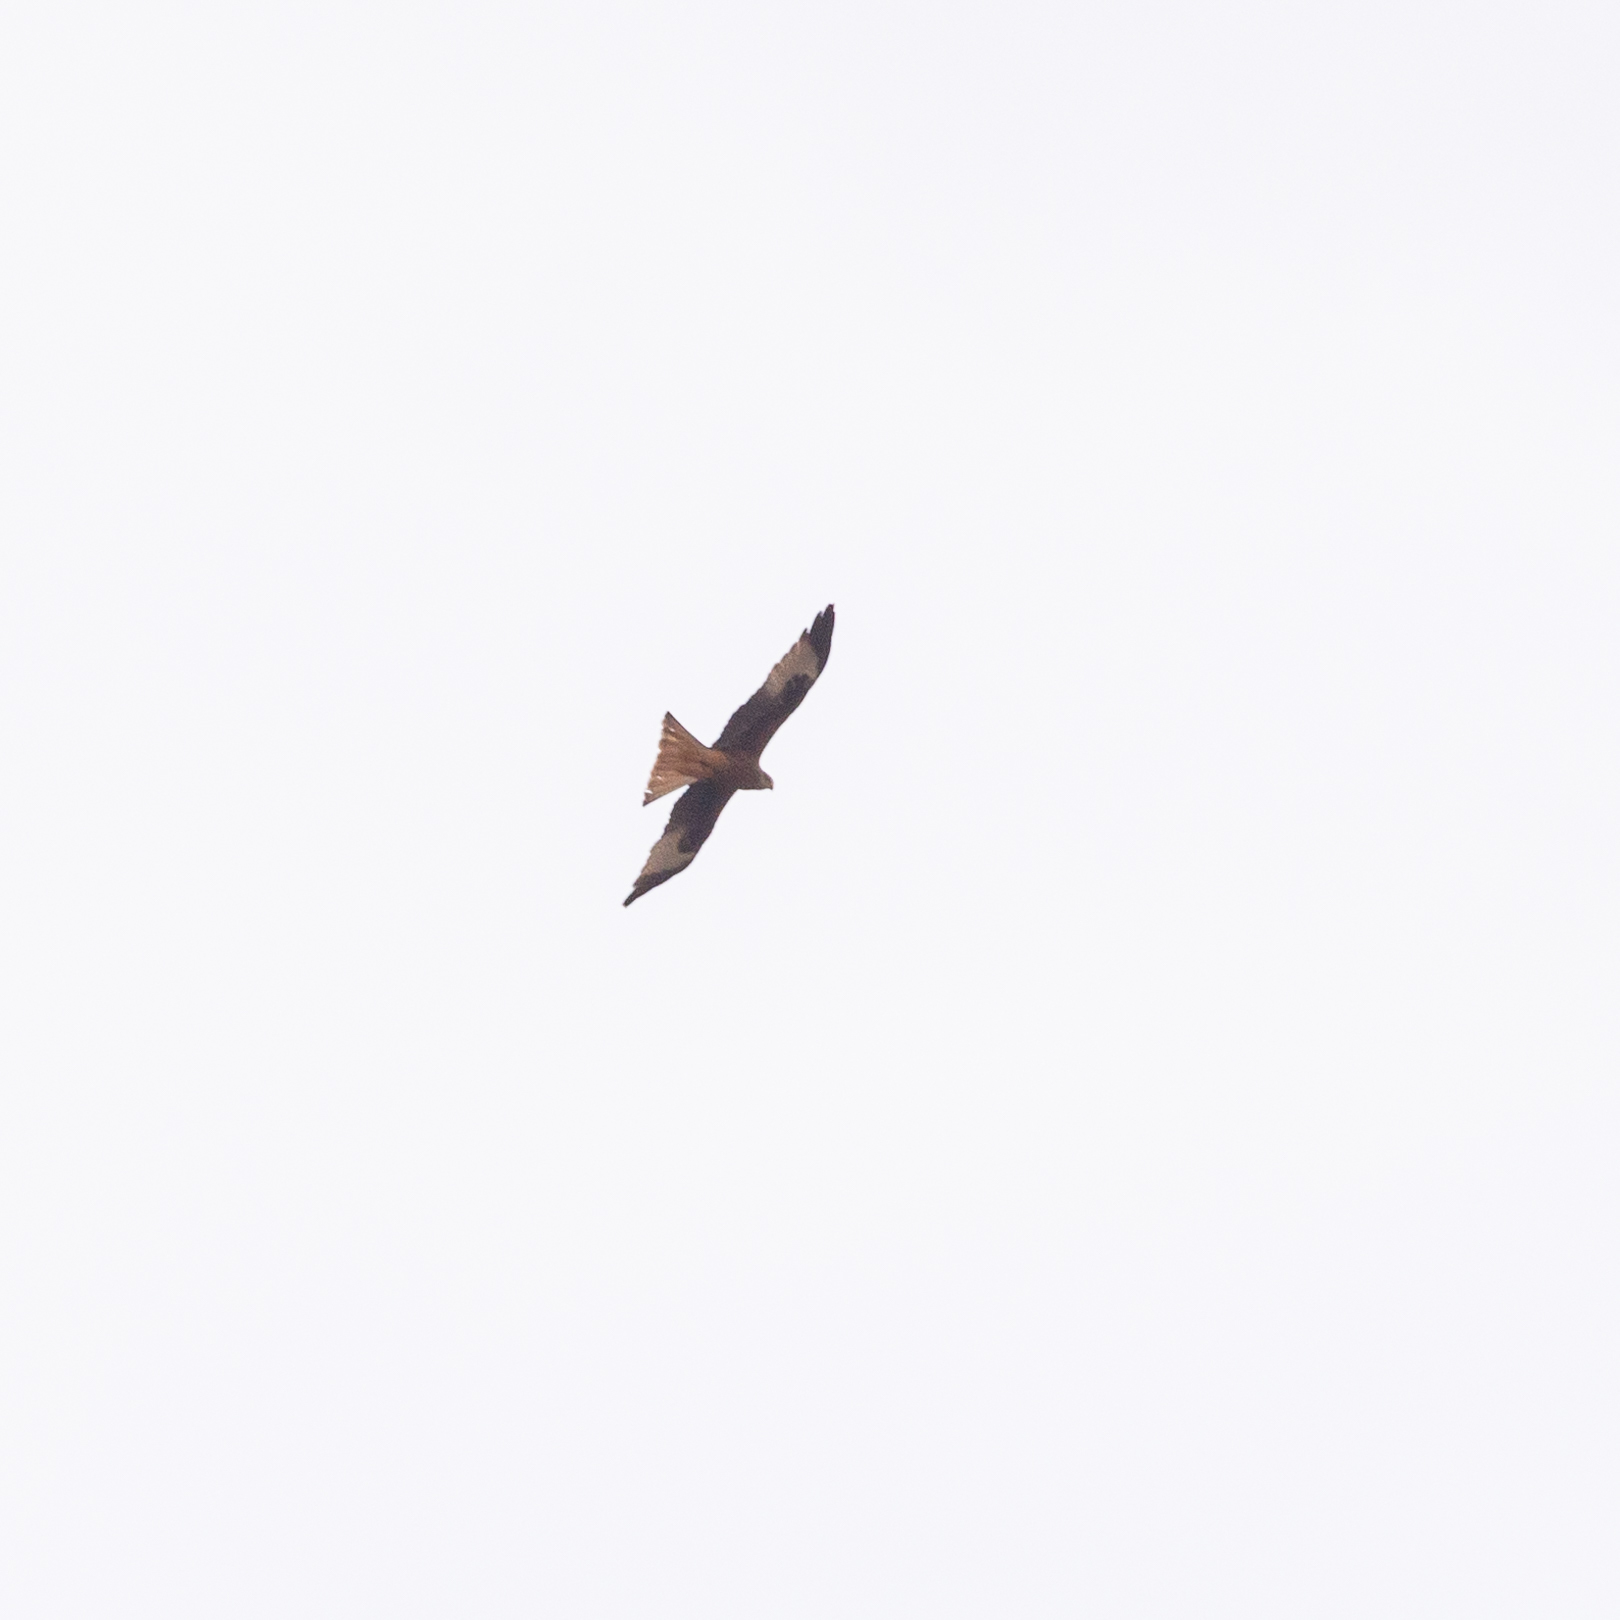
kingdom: Animalia
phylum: Chordata
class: Aves
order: Accipitriformes
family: Accipitridae
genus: Milvus
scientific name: Milvus milvus
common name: Red kite
